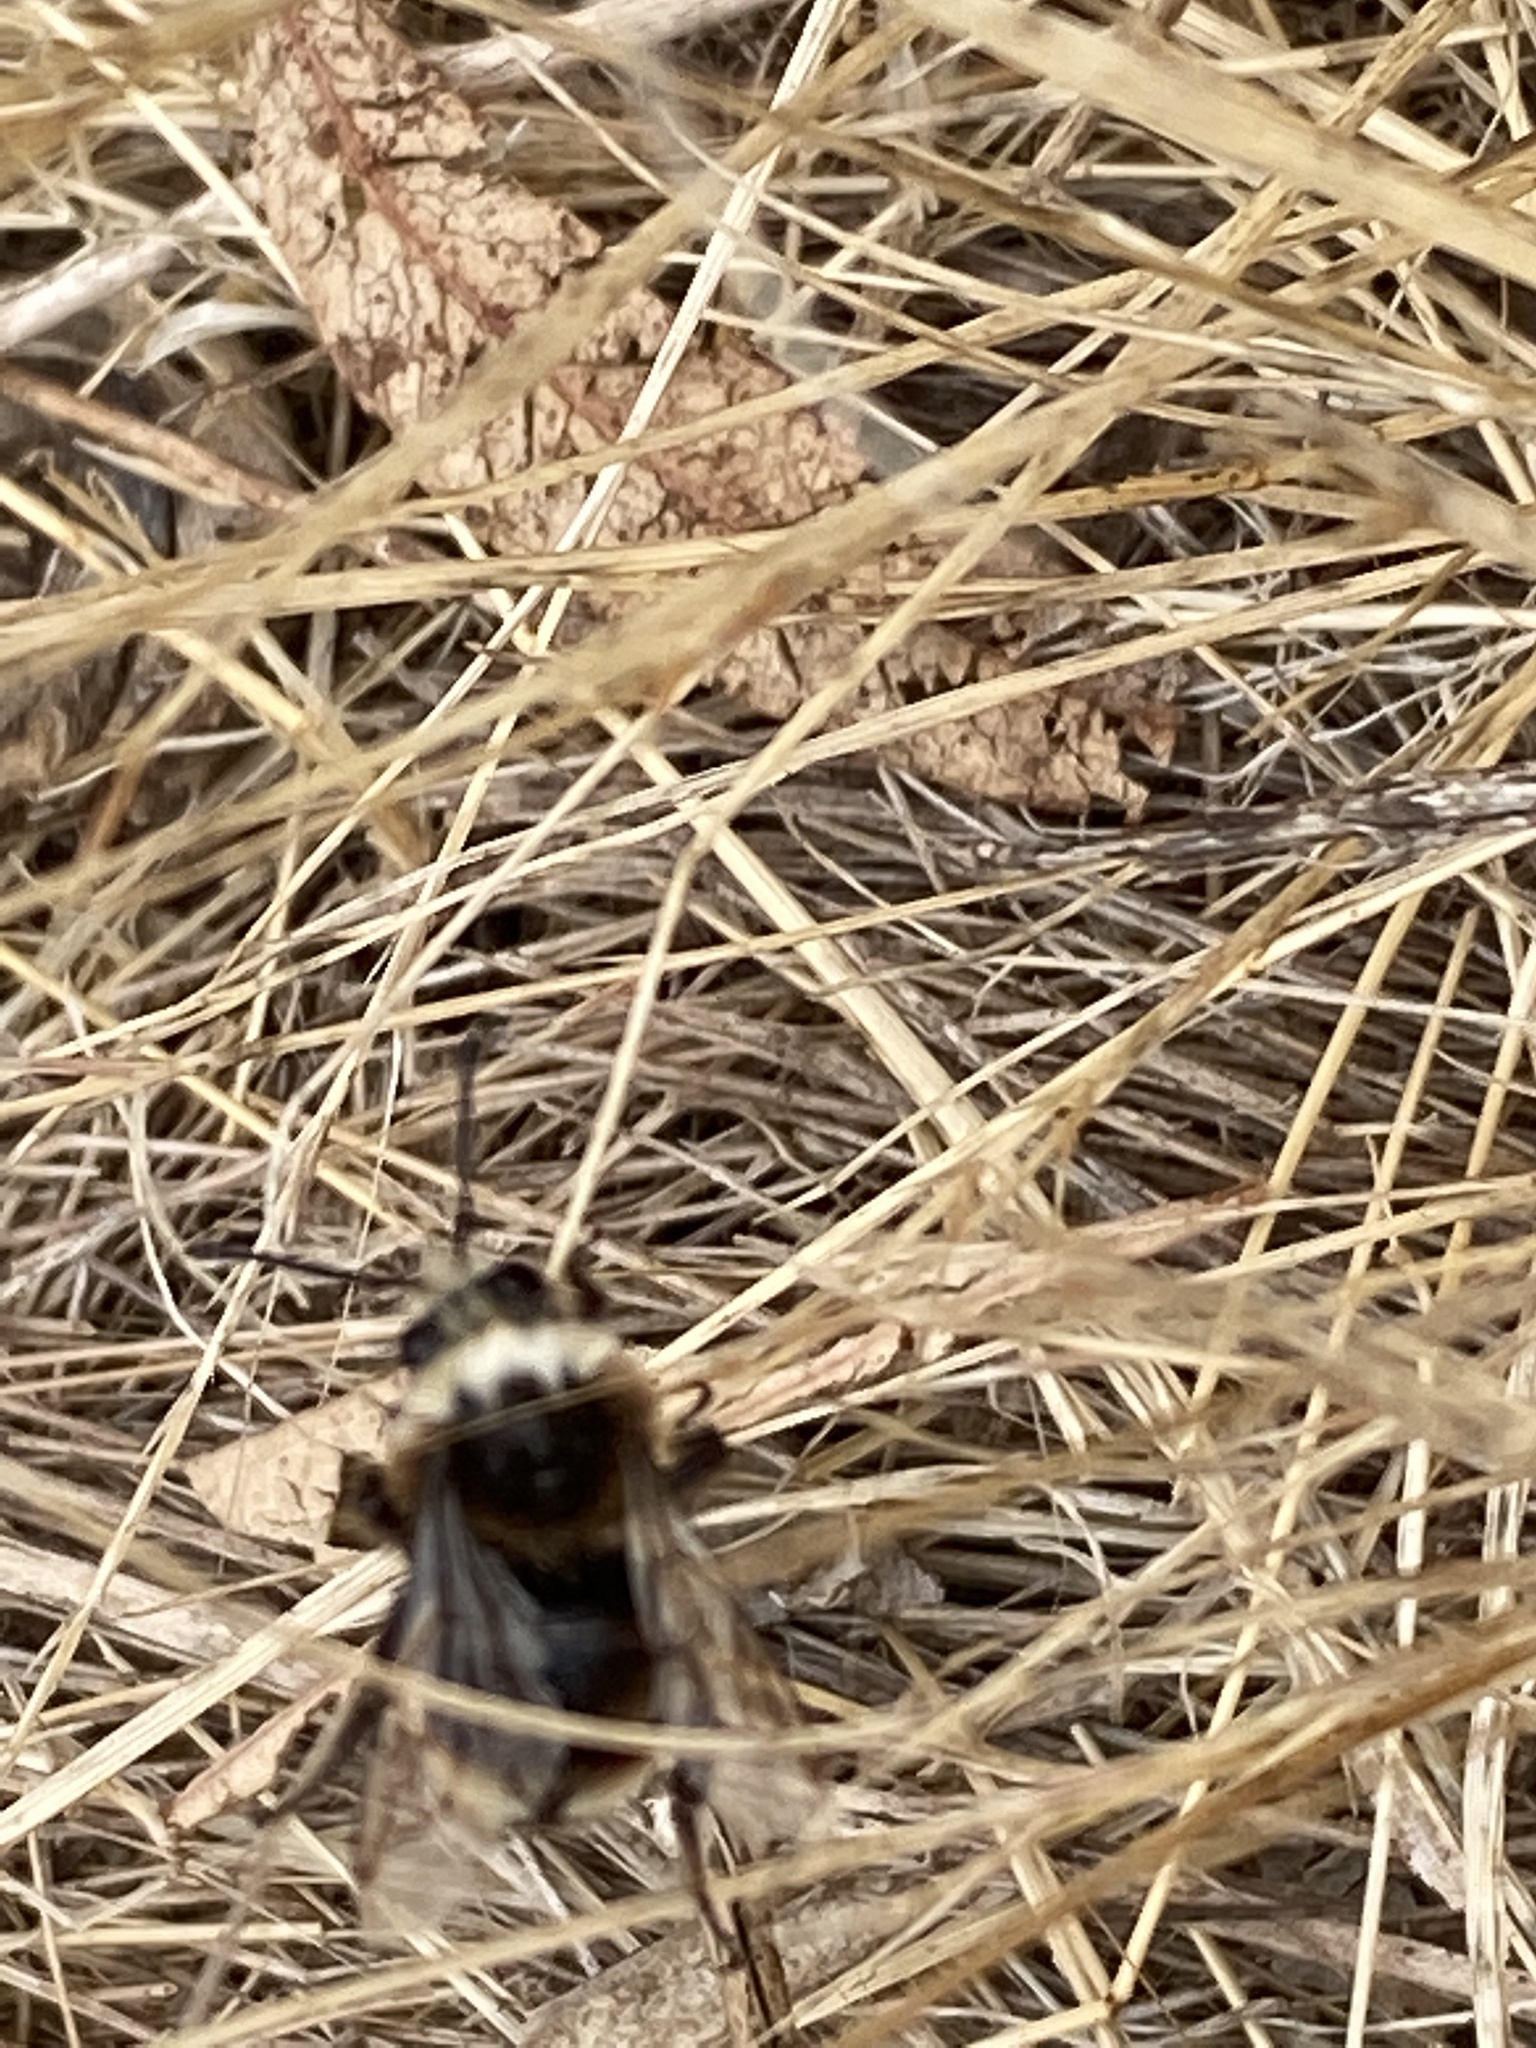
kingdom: Animalia
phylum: Arthropoda
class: Insecta
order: Hymenoptera
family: Apidae
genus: Bombus
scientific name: Bombus vosnesenskii
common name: Vosnesensky bumble bee
